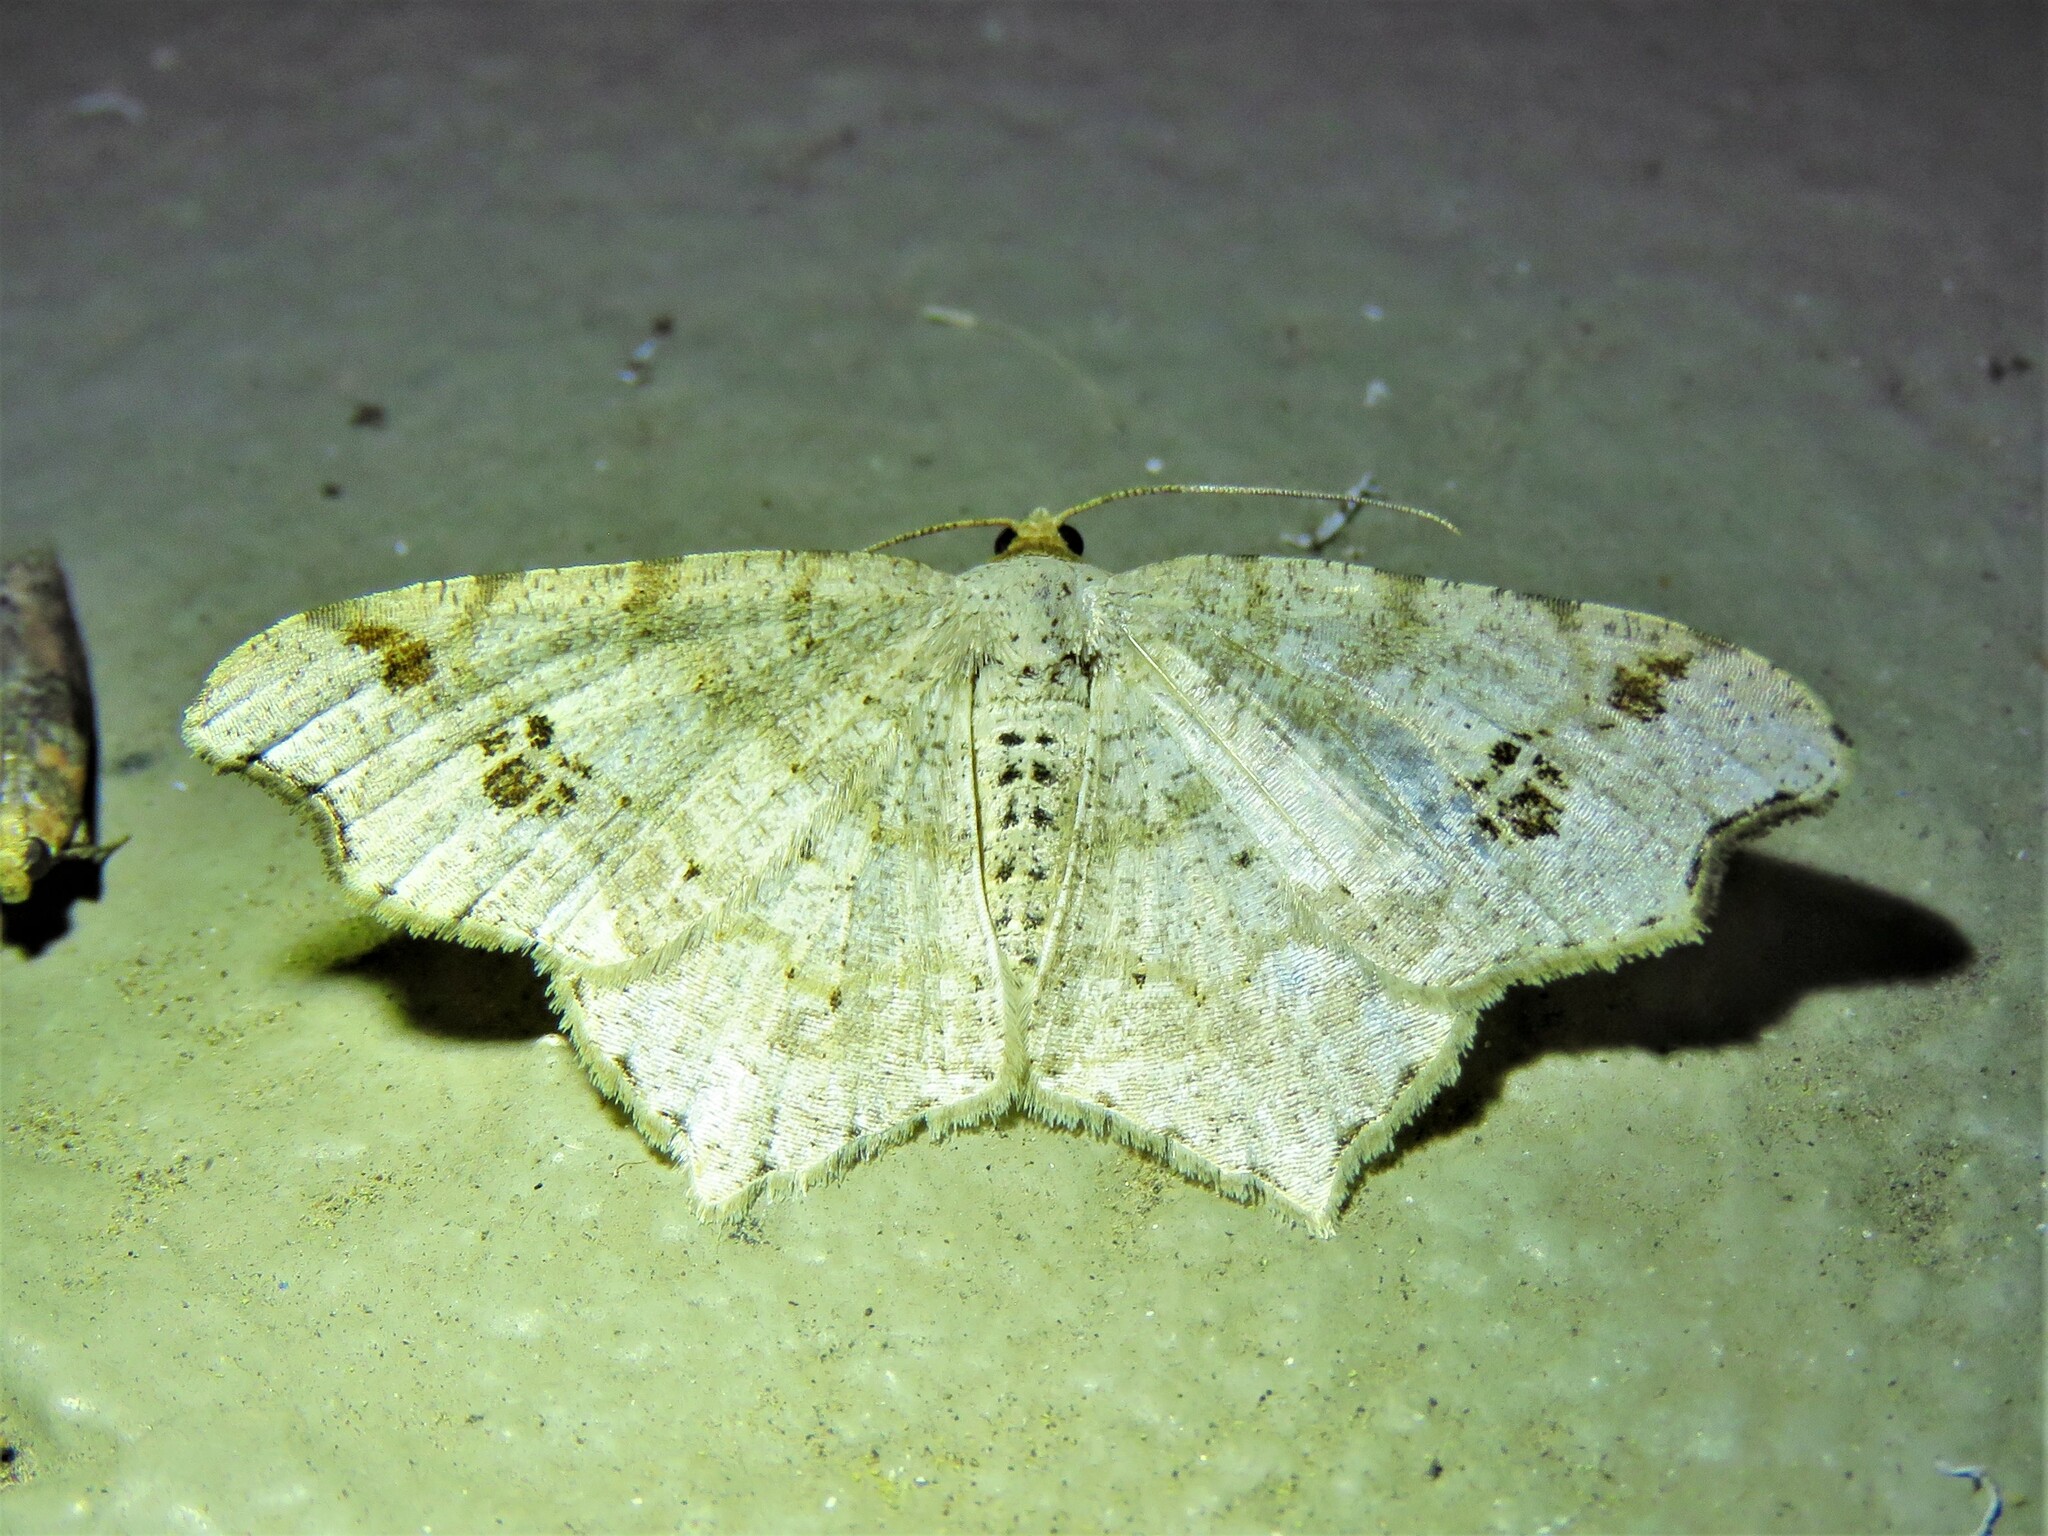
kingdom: Animalia
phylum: Arthropoda
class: Insecta
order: Lepidoptera
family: Geometridae
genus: Macaria
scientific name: Macaria aemulataria
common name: Common angle
